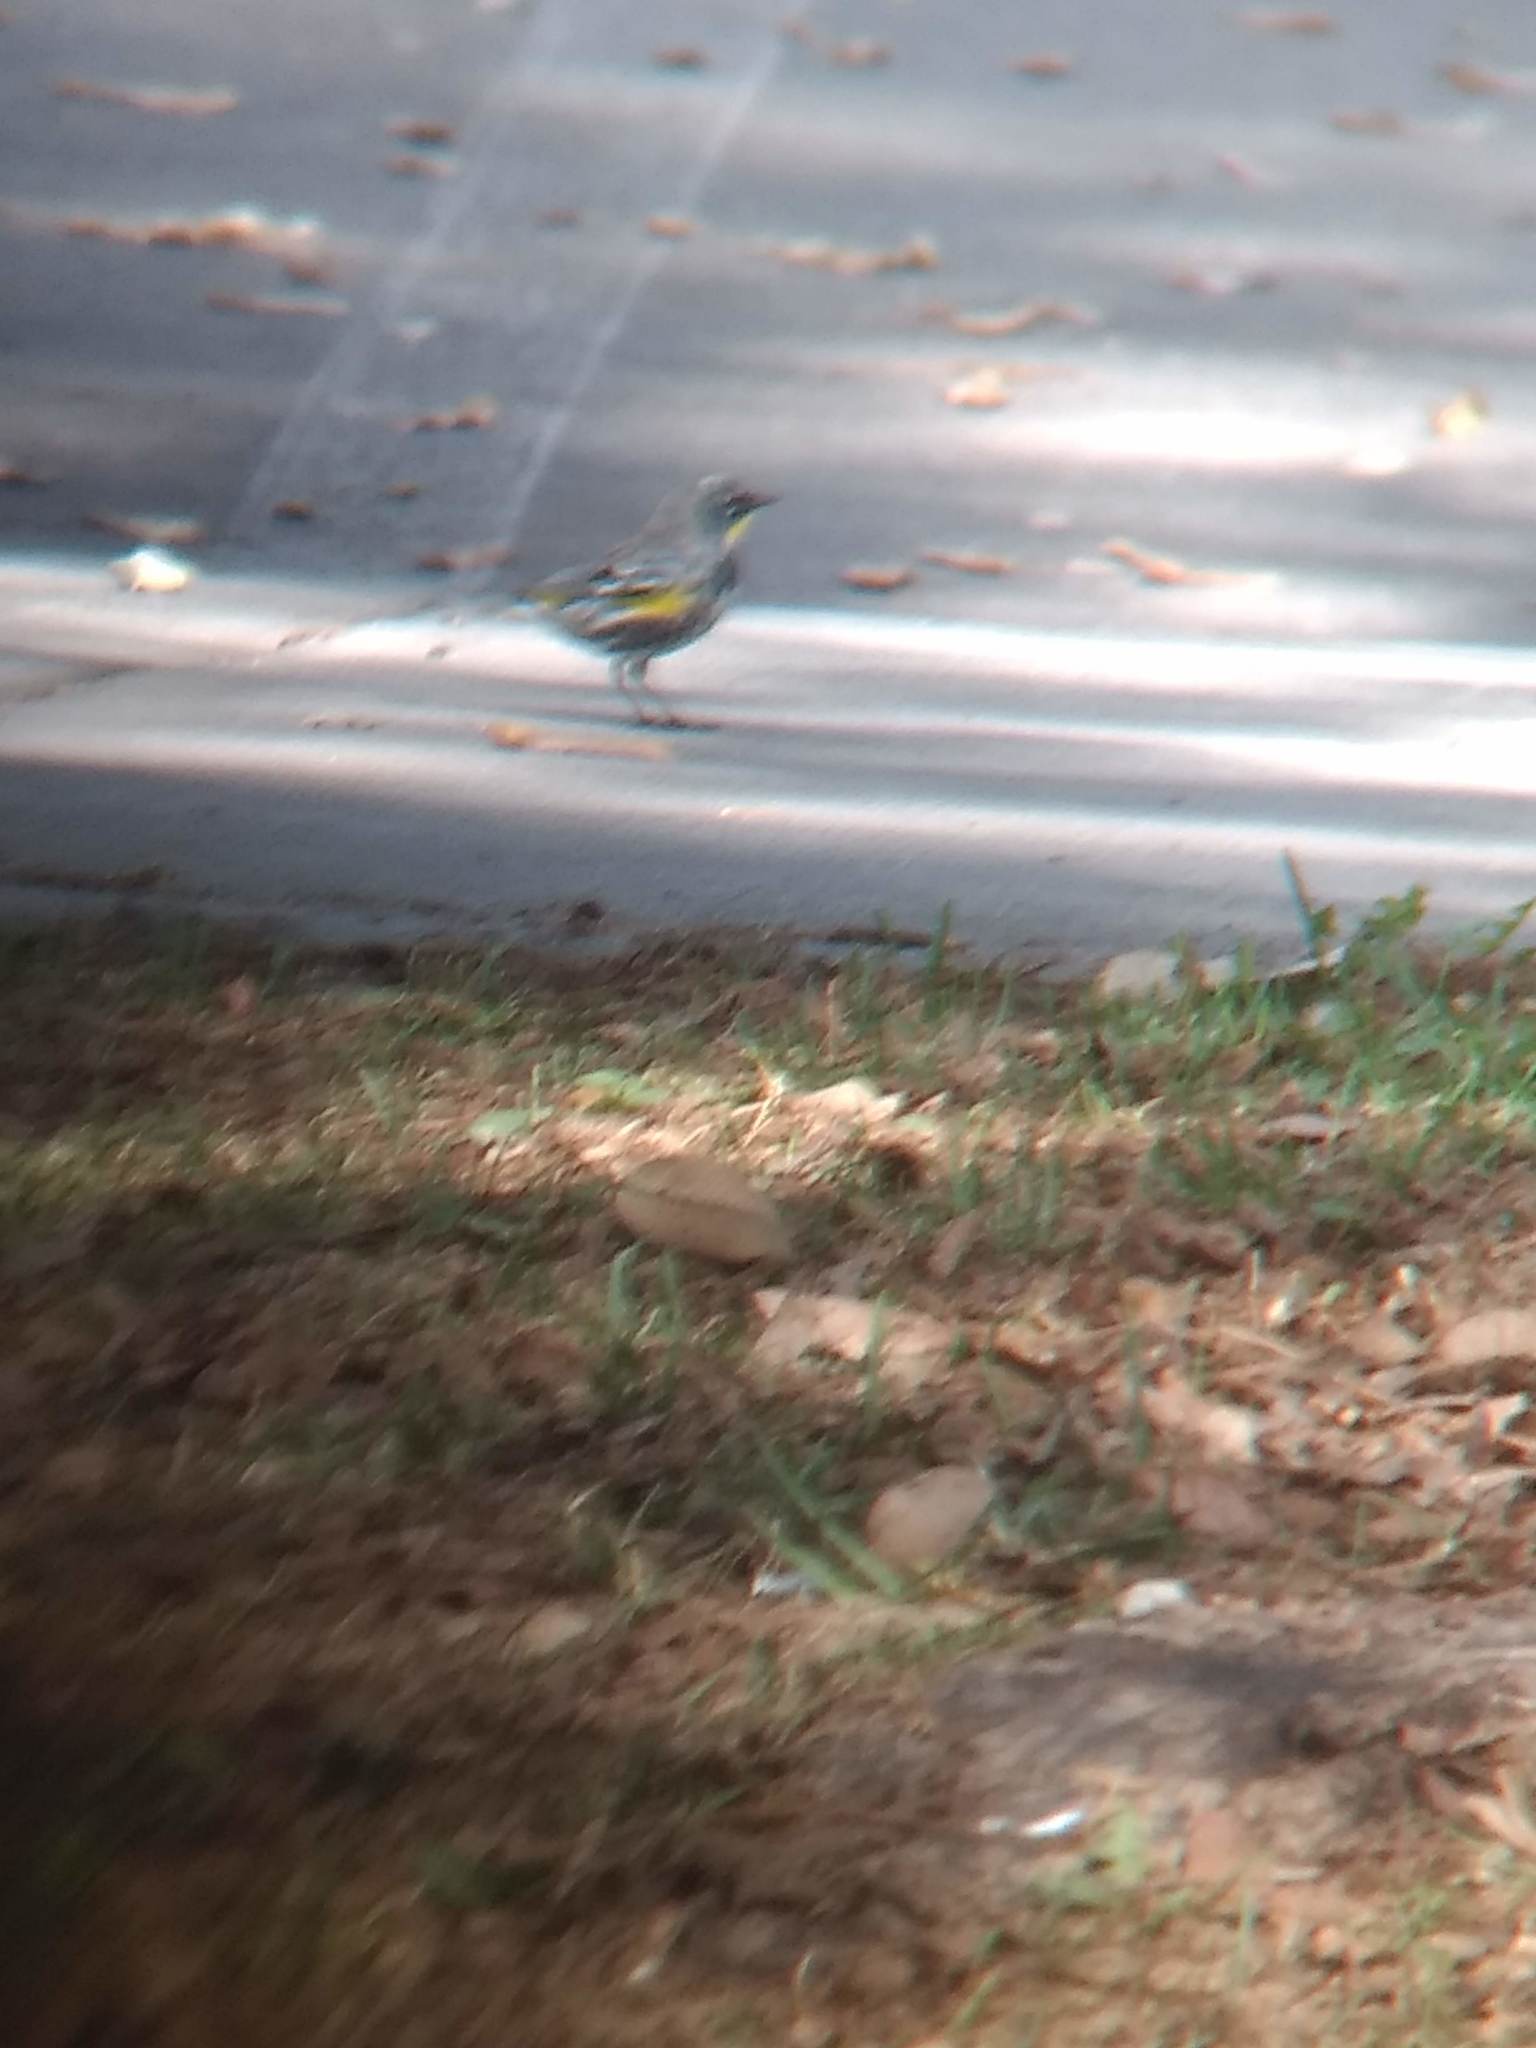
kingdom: Animalia
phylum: Chordata
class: Aves
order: Passeriformes
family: Parulidae
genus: Setophaga
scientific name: Setophaga coronata
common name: Myrtle warbler
